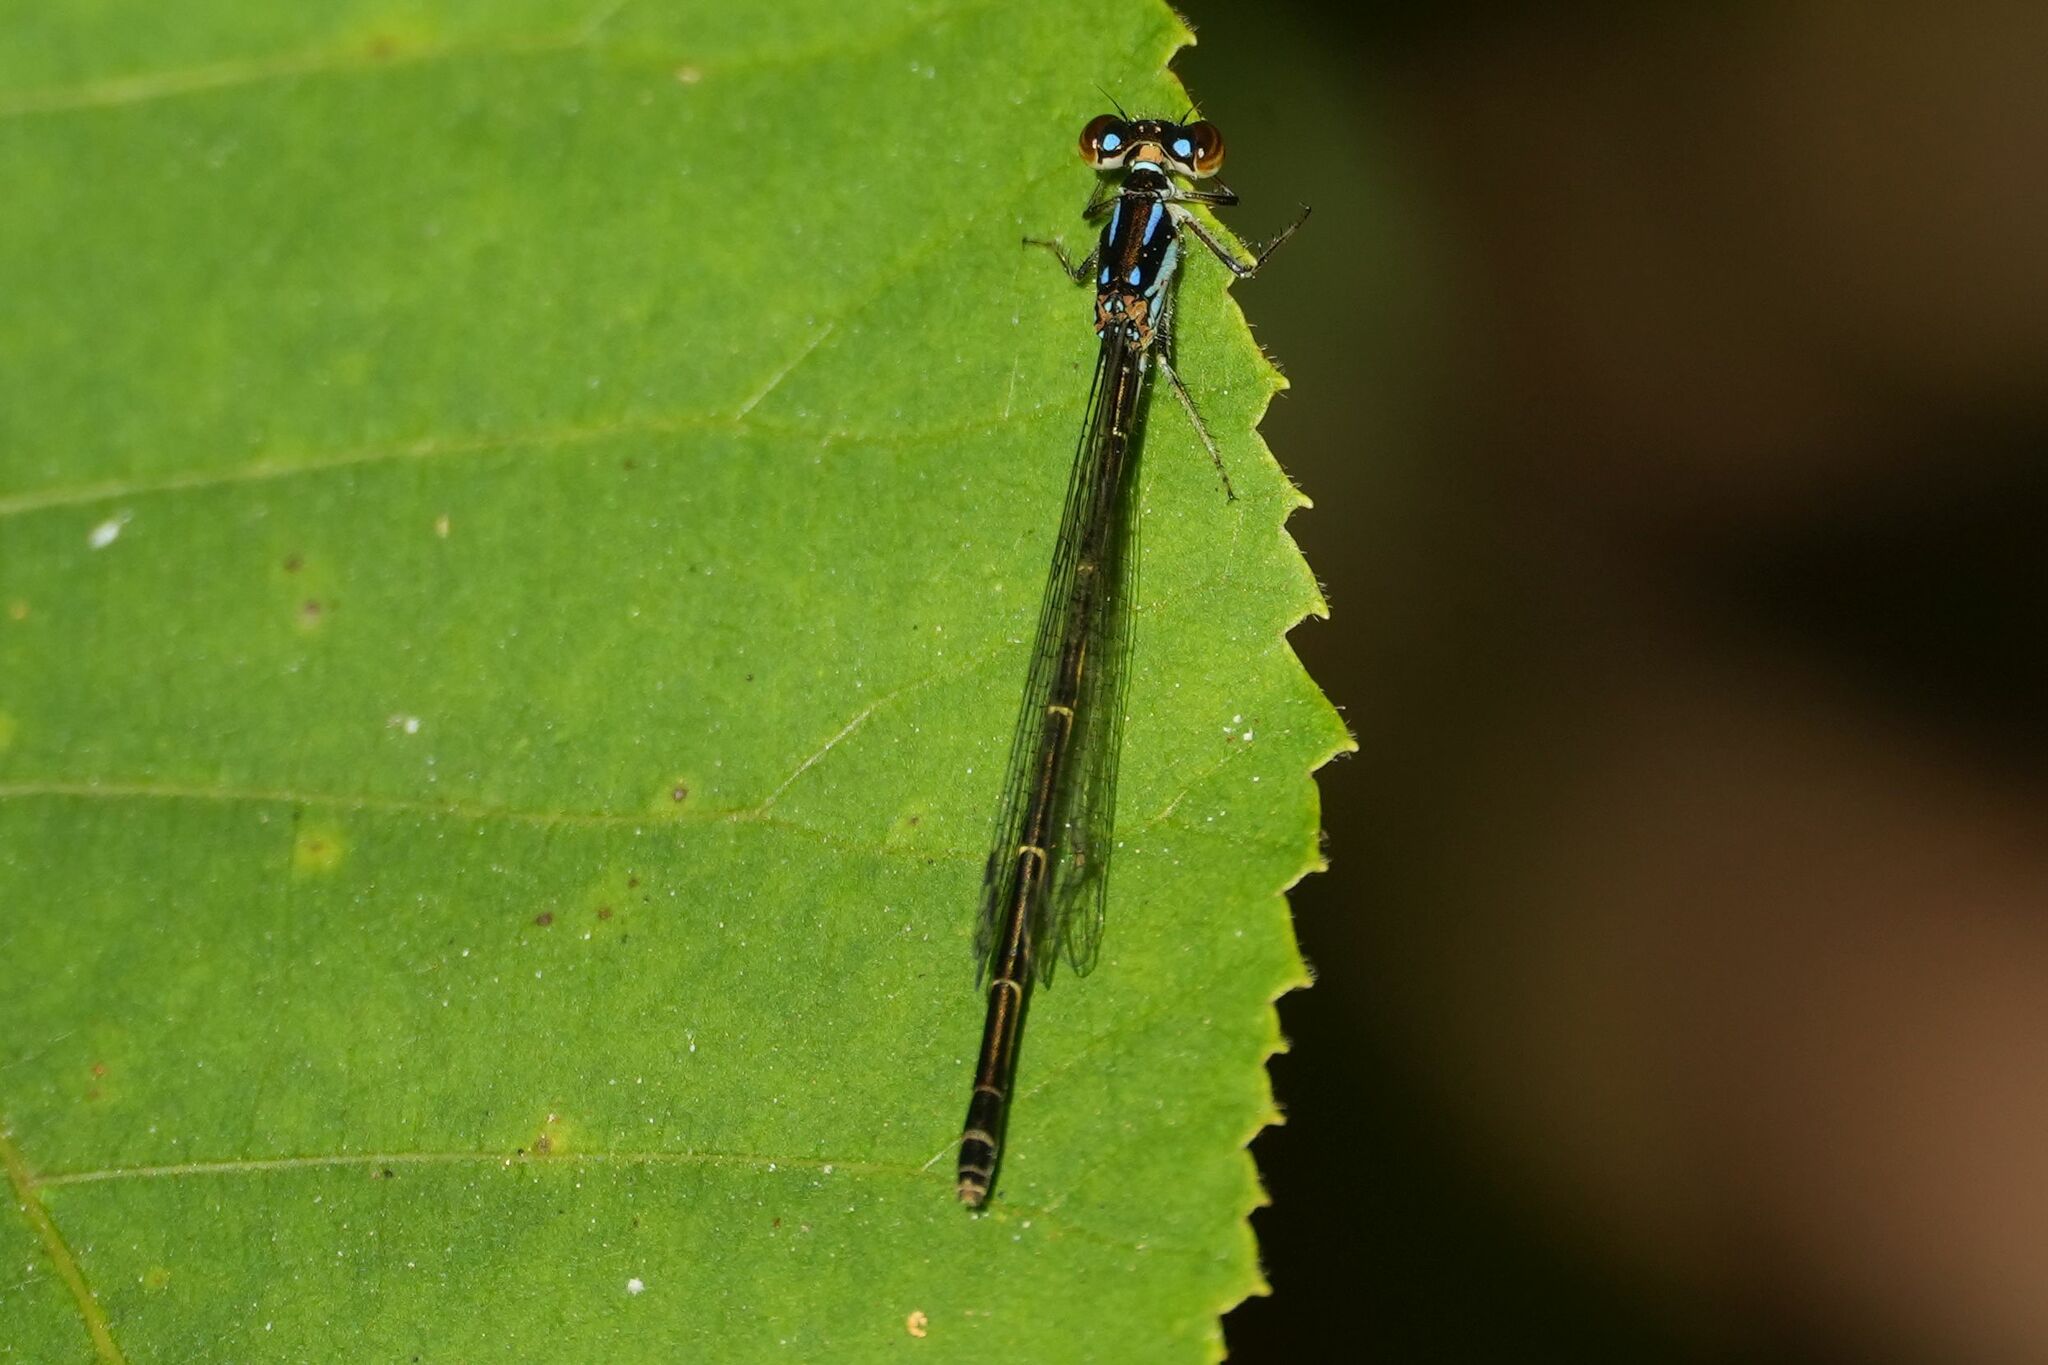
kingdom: Animalia
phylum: Arthropoda
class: Insecta
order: Odonata
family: Coenagrionidae
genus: Ischnura
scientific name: Ischnura posita
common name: Fragile forktail
